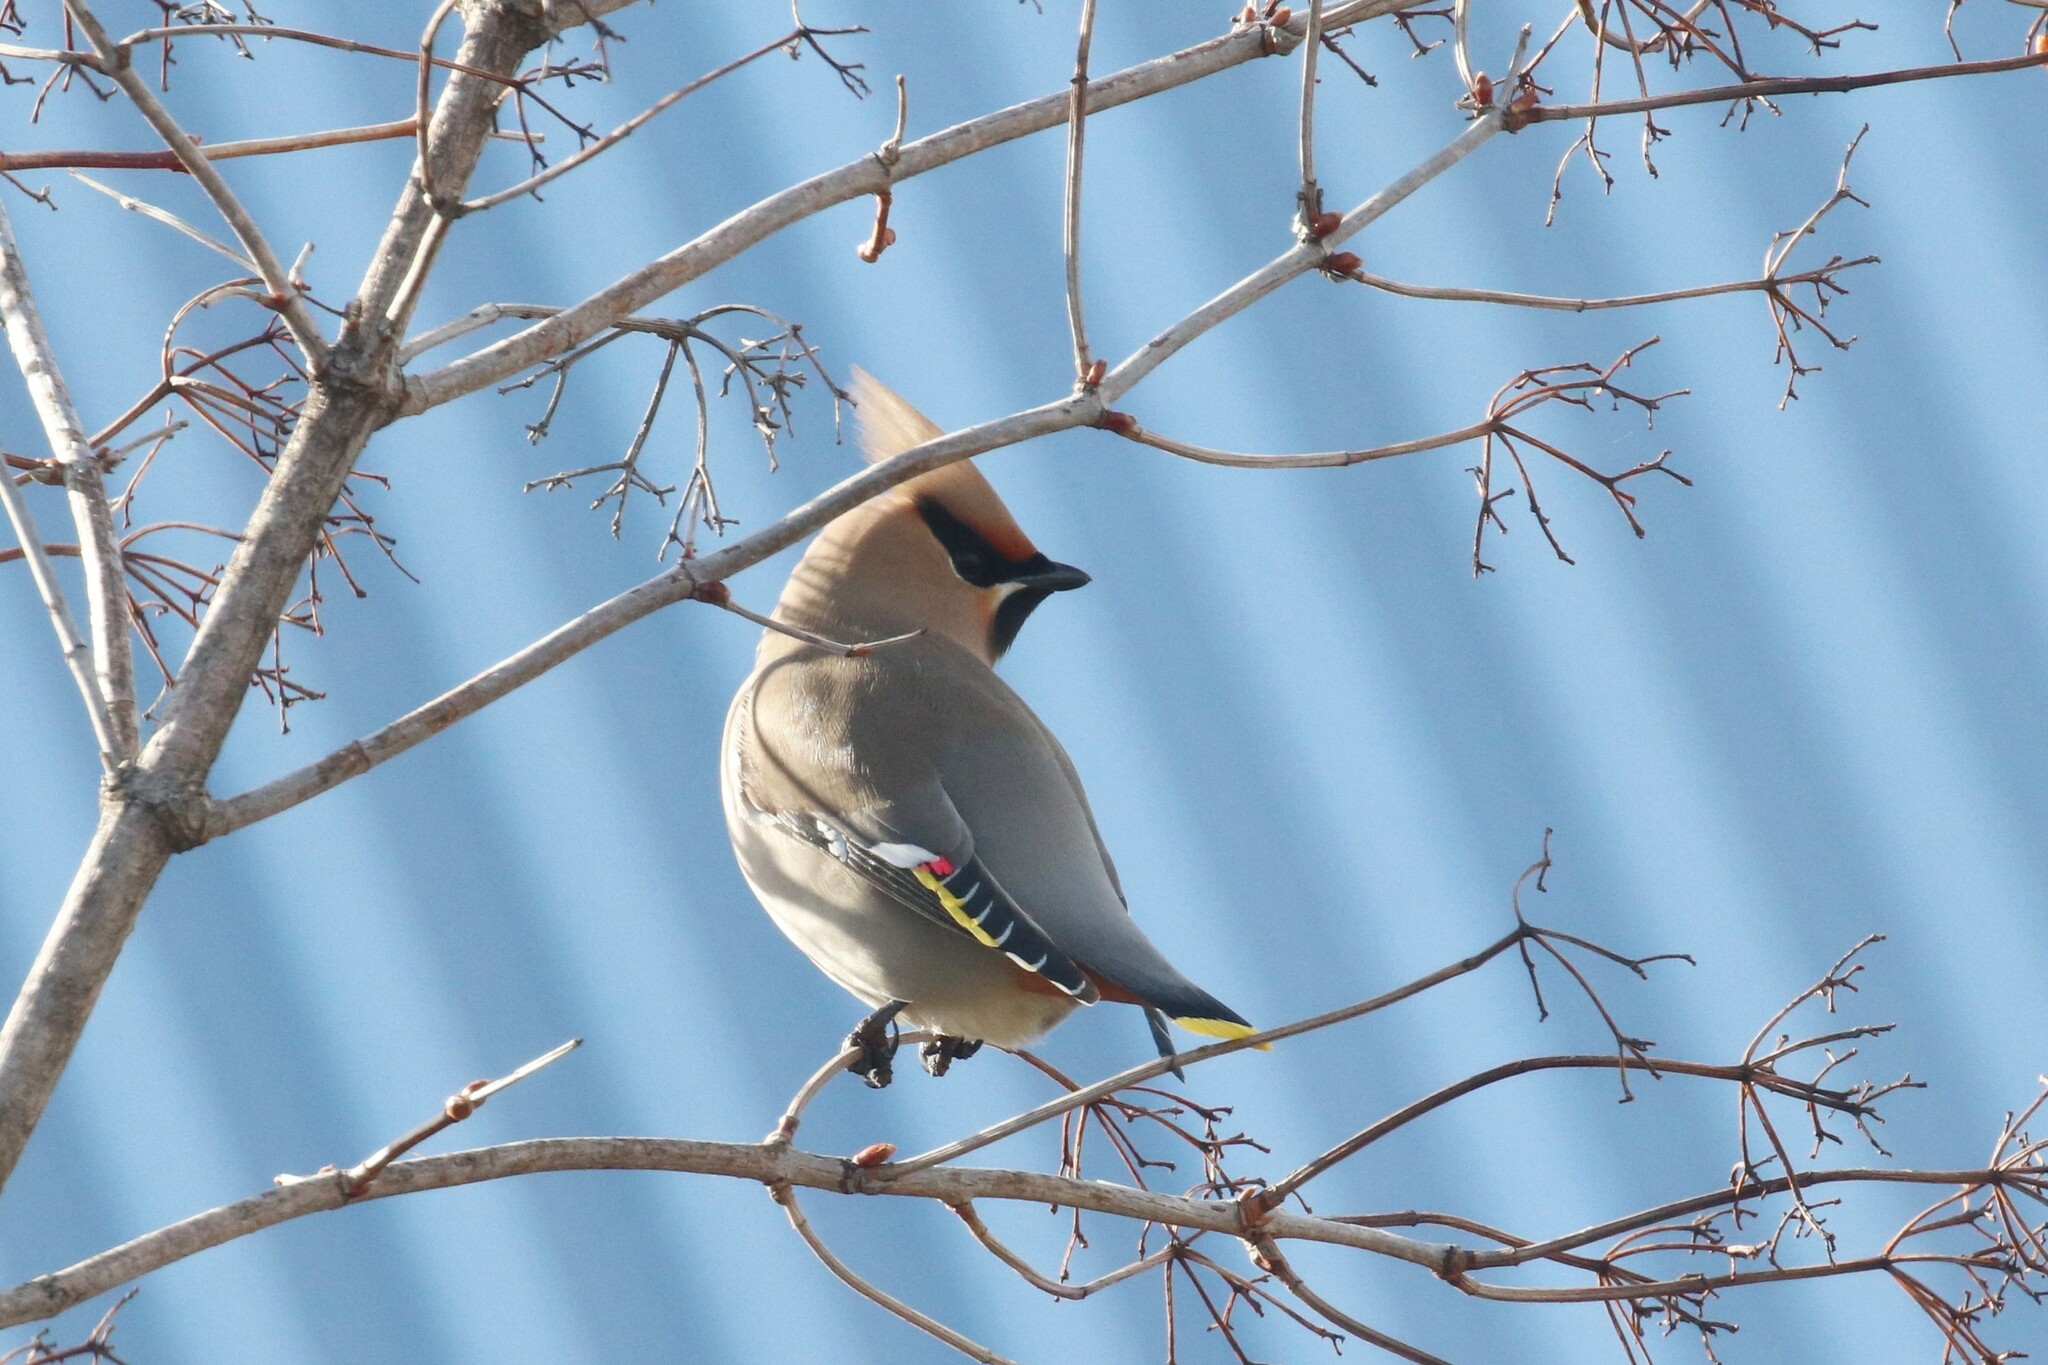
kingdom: Animalia
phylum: Chordata
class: Aves
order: Passeriformes
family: Bombycillidae
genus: Bombycilla
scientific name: Bombycilla garrulus
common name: Bohemian waxwing
